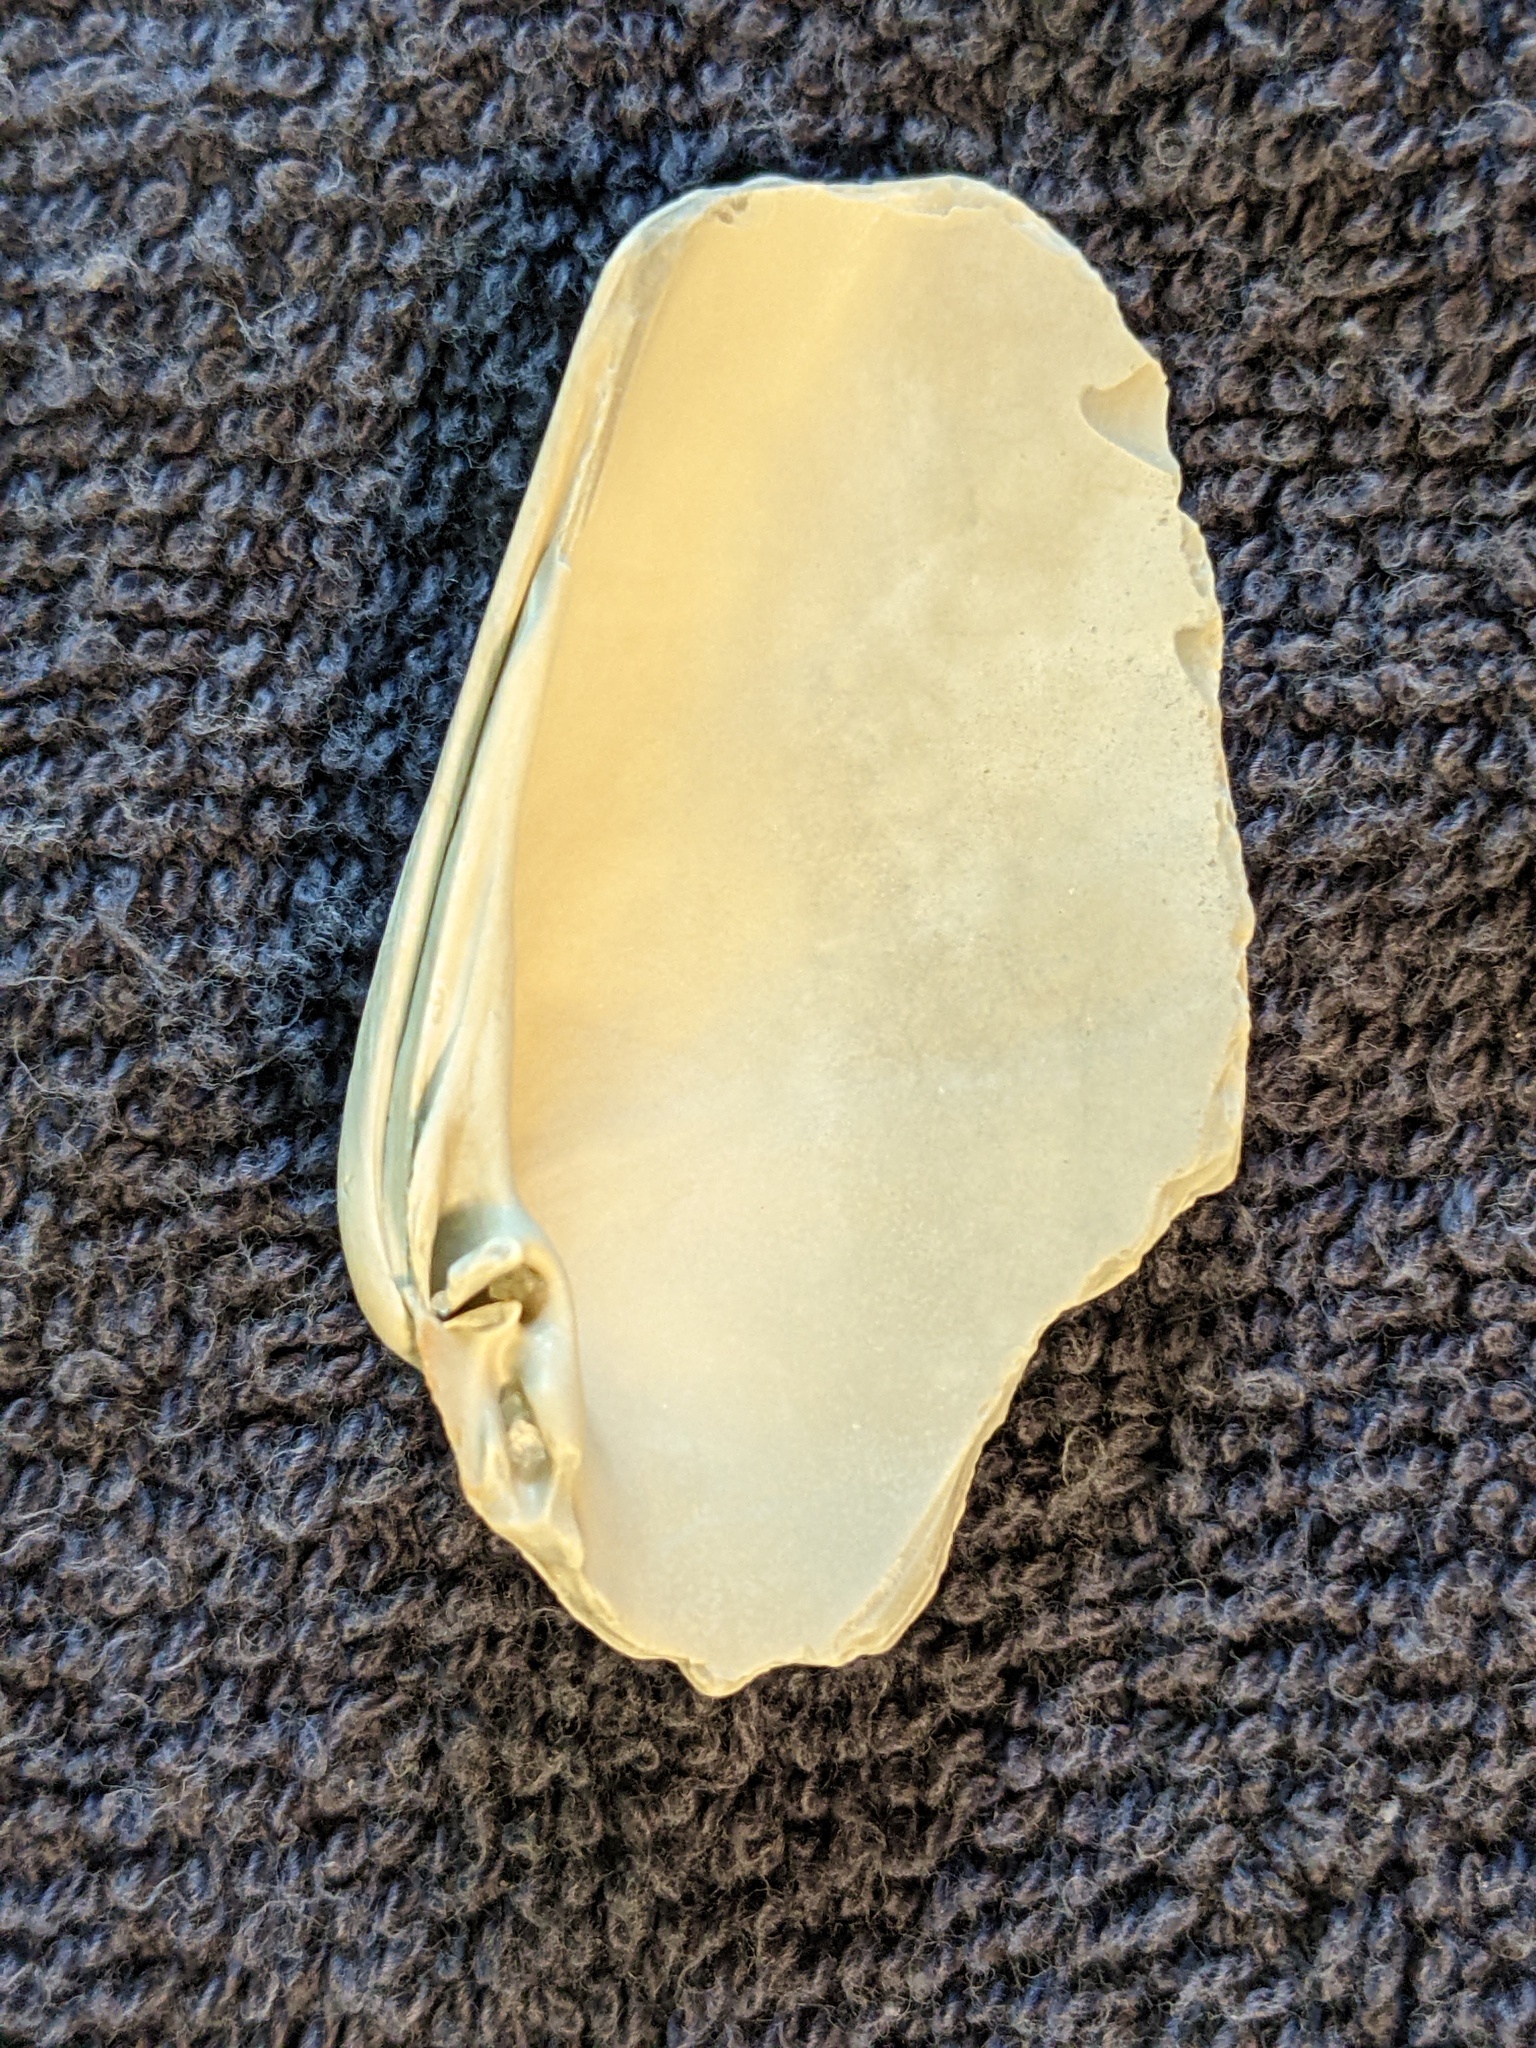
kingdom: Animalia
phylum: Mollusca
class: Bivalvia
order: Venerida
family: Veneridae
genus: Macrocallista
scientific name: Macrocallista nimbosa
